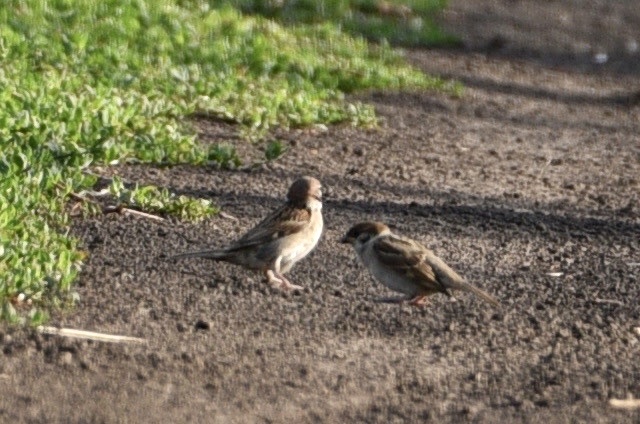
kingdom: Animalia
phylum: Chordata
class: Aves
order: Passeriformes
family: Passeridae
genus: Passer
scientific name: Passer montanus
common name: Eurasian tree sparrow
